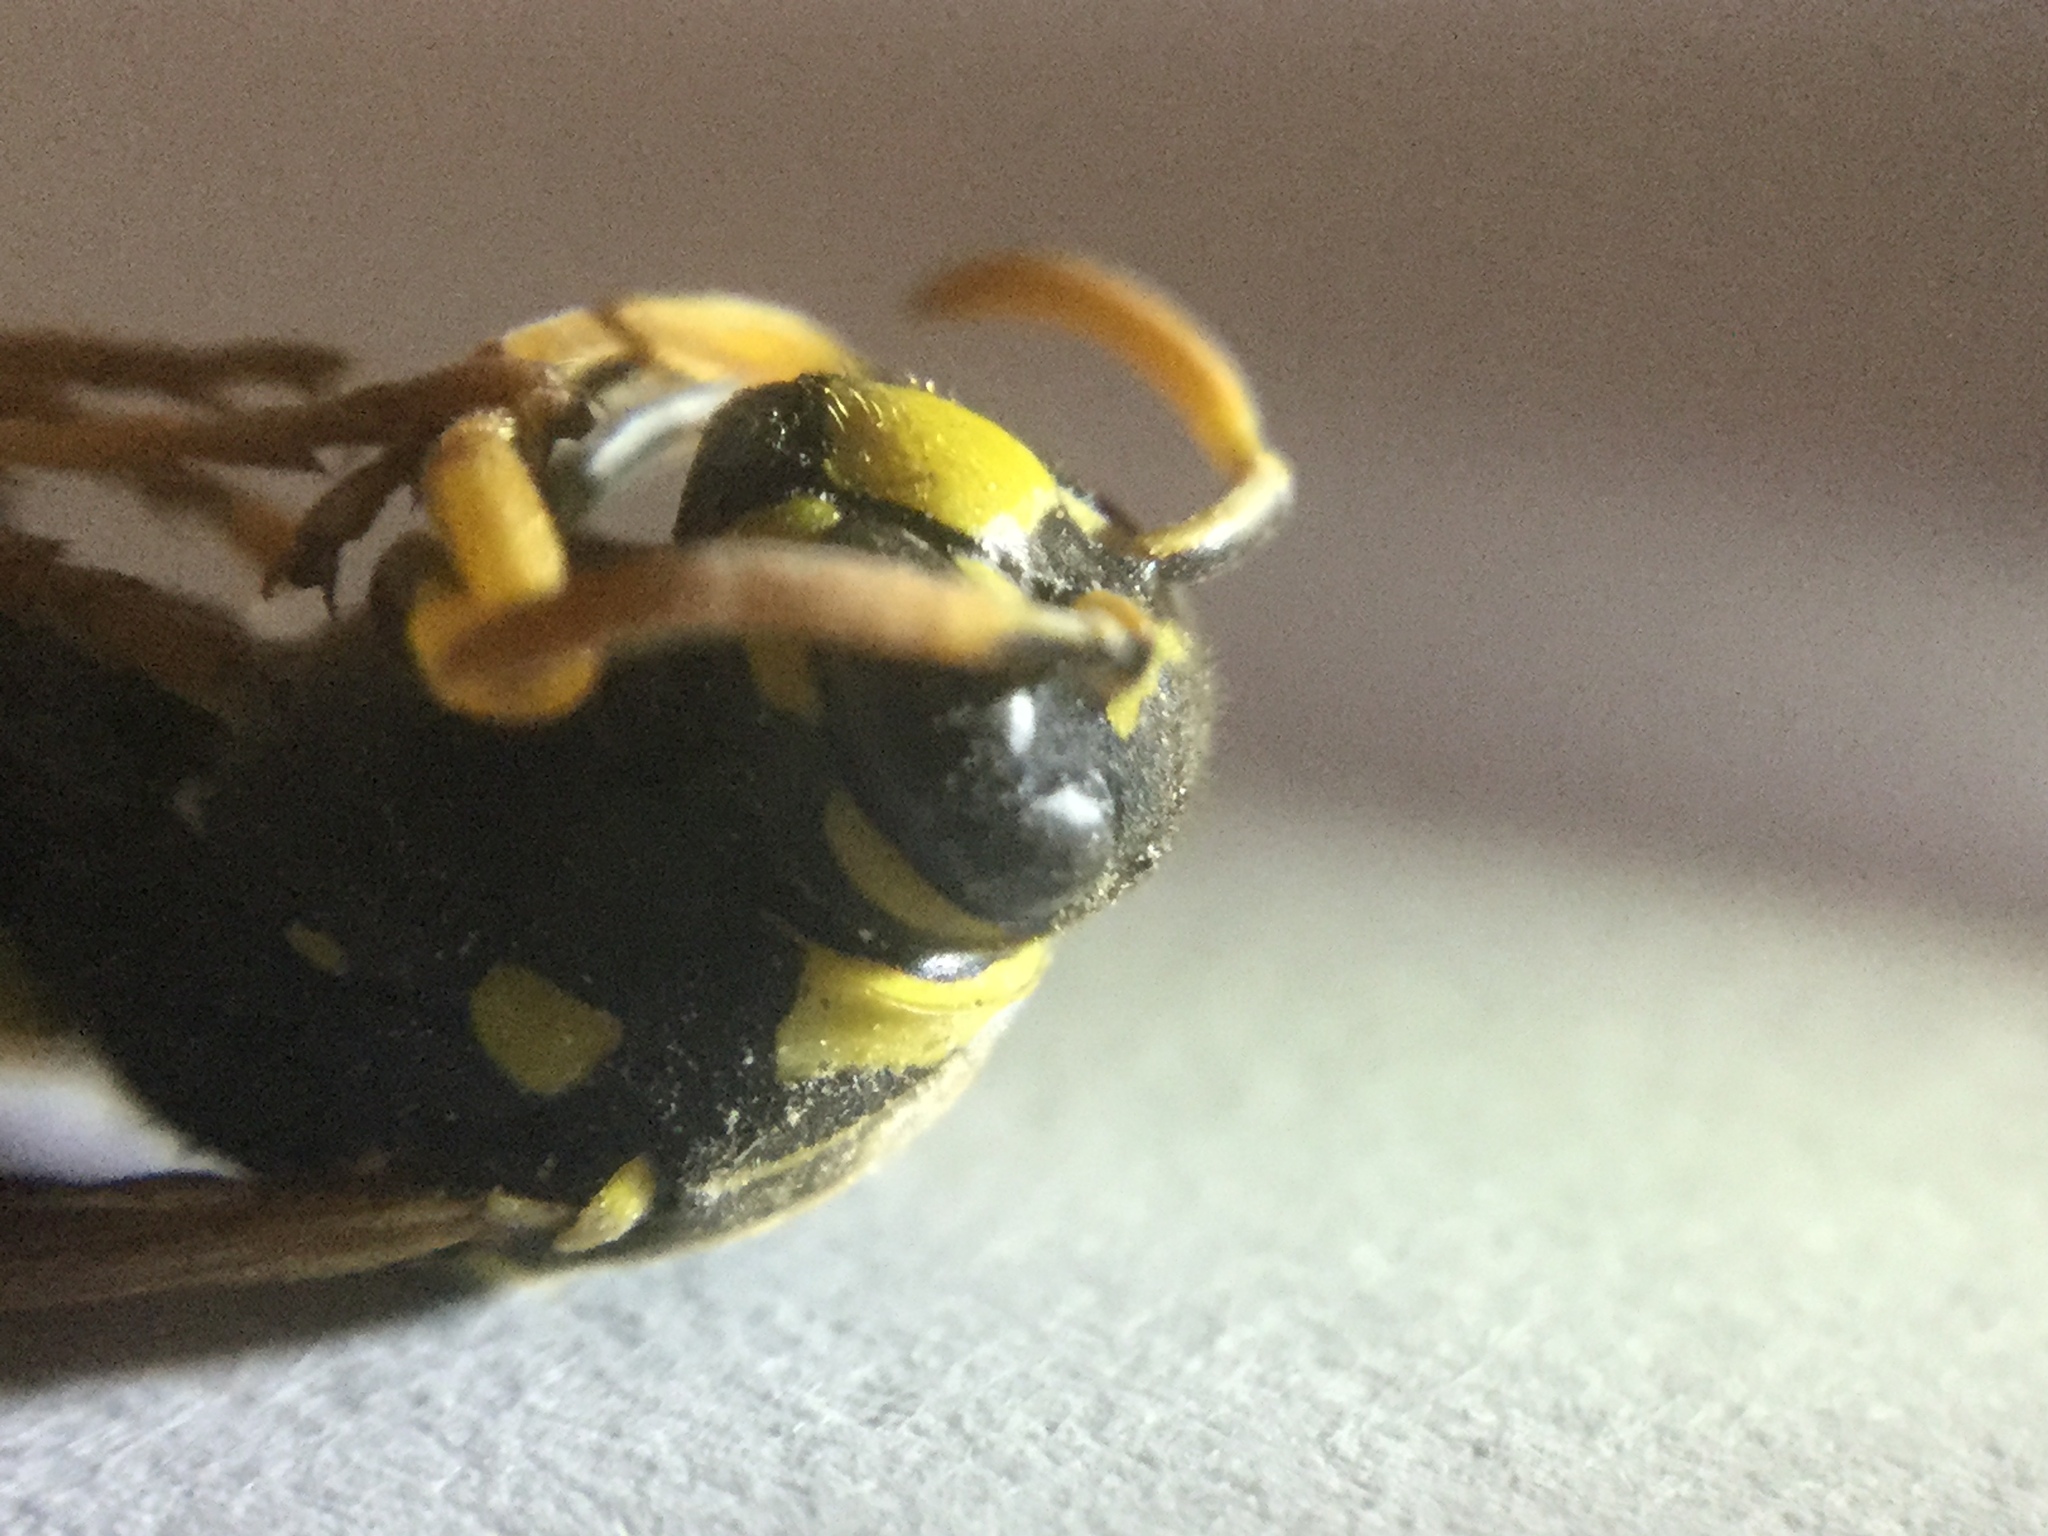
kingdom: Animalia
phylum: Arthropoda
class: Insecta
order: Hymenoptera
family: Eumenidae
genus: Polistes
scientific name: Polistes dominula
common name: Paper wasp
